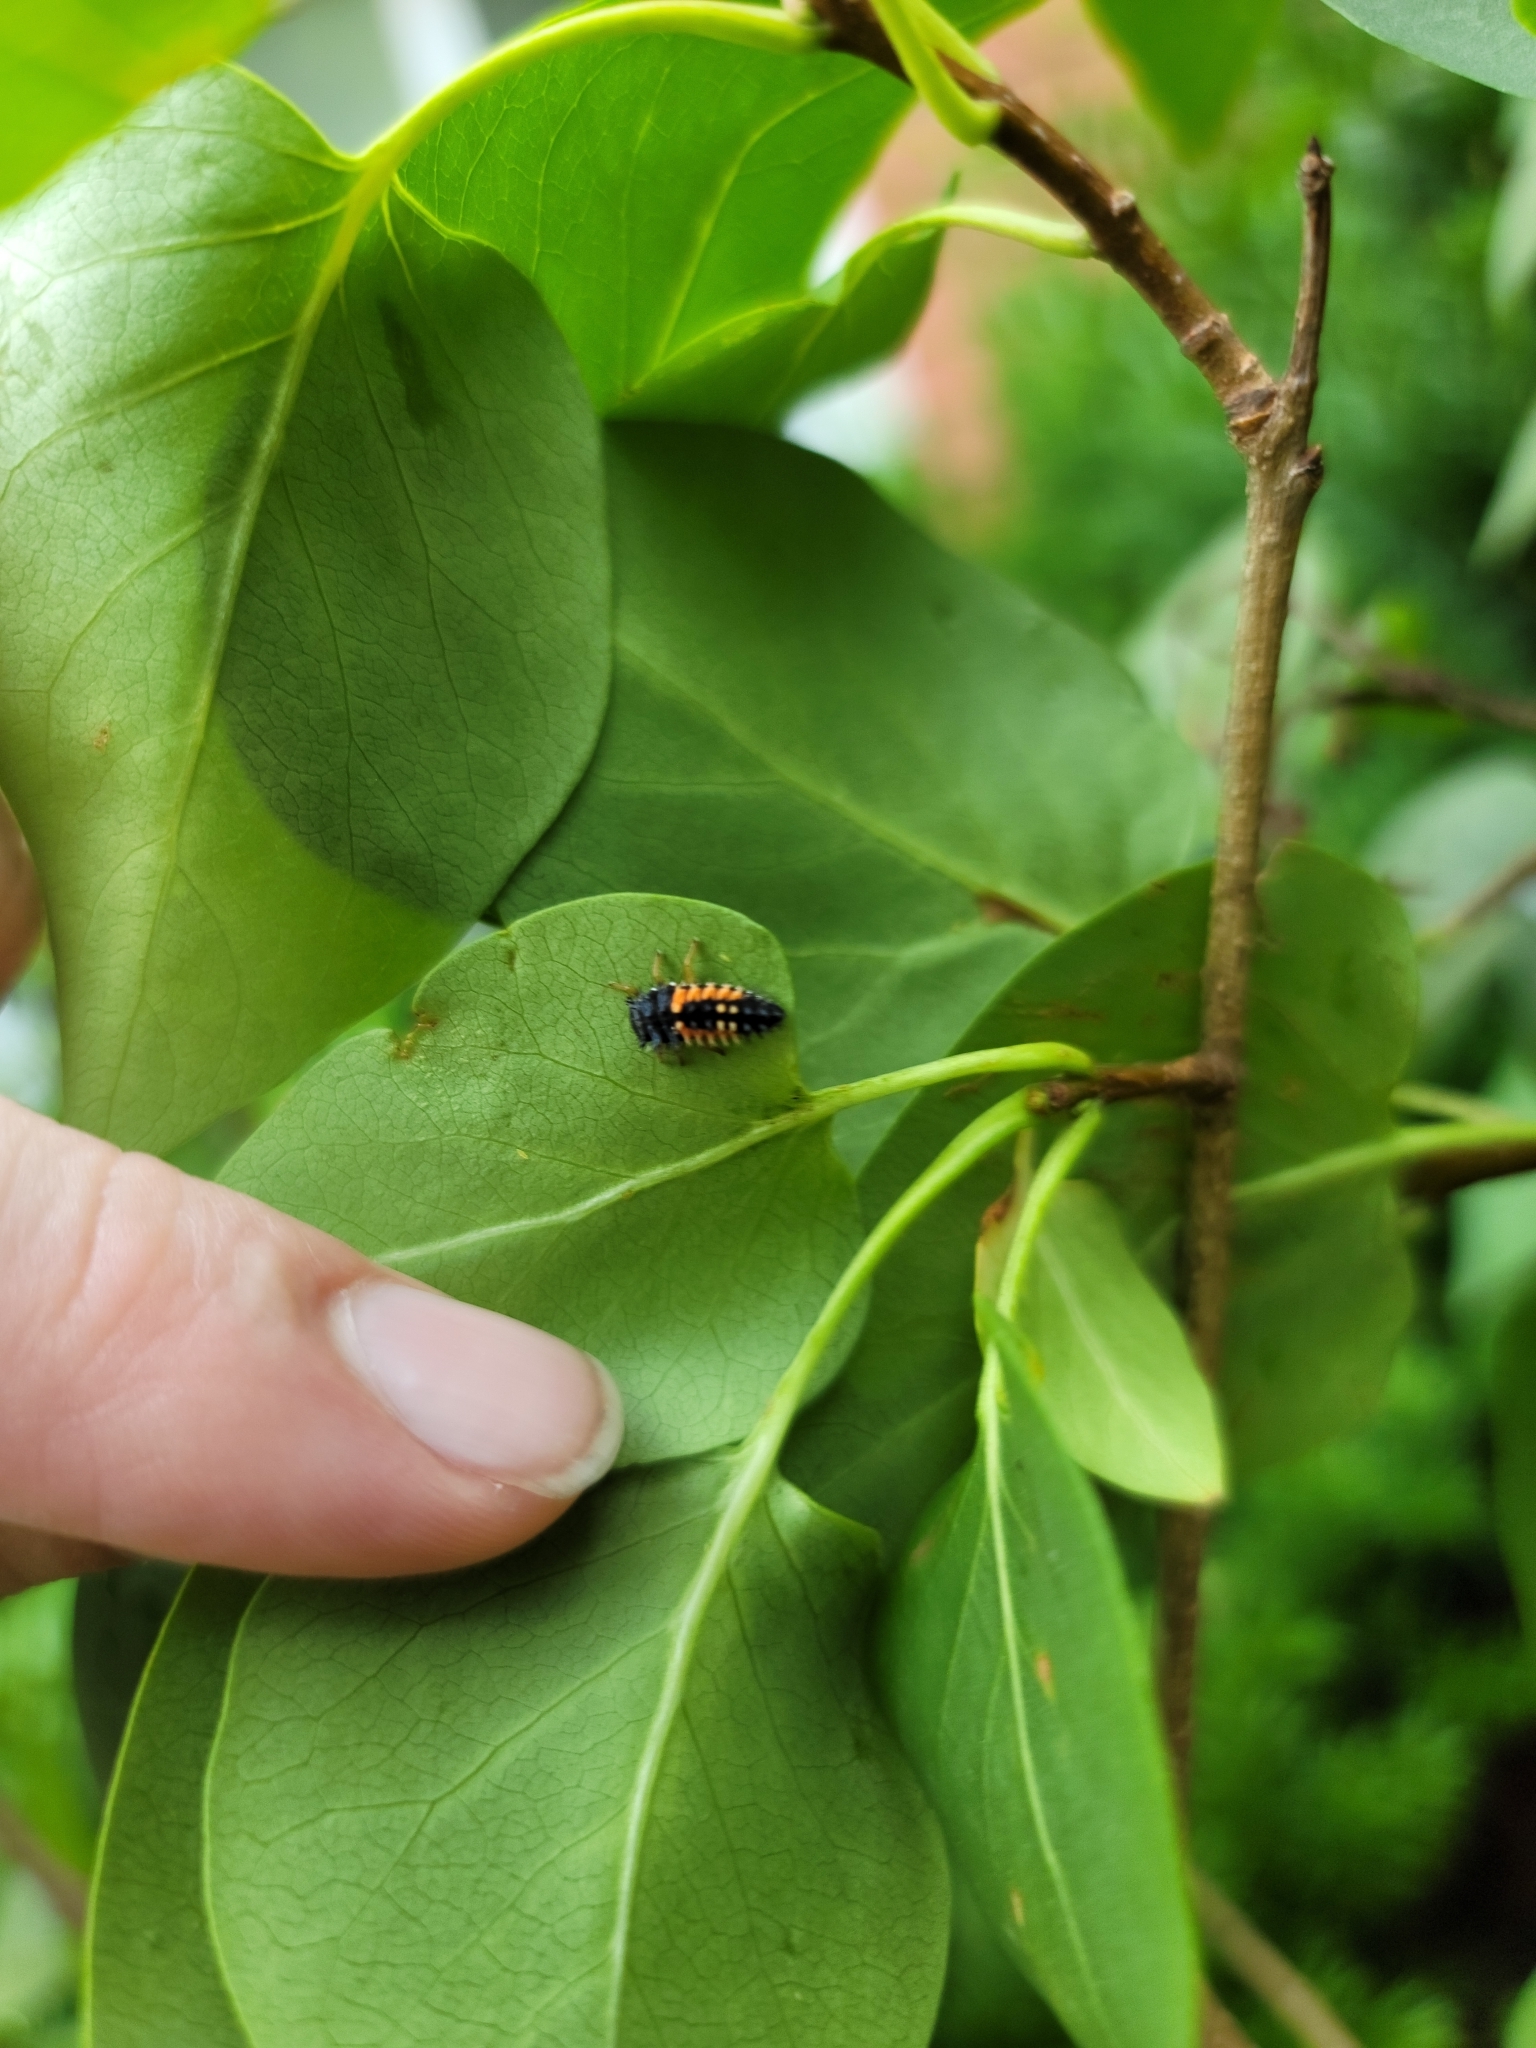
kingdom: Animalia
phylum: Arthropoda
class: Insecta
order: Coleoptera
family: Coccinellidae
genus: Harmonia
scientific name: Harmonia axyridis
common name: Harlequin ladybird
